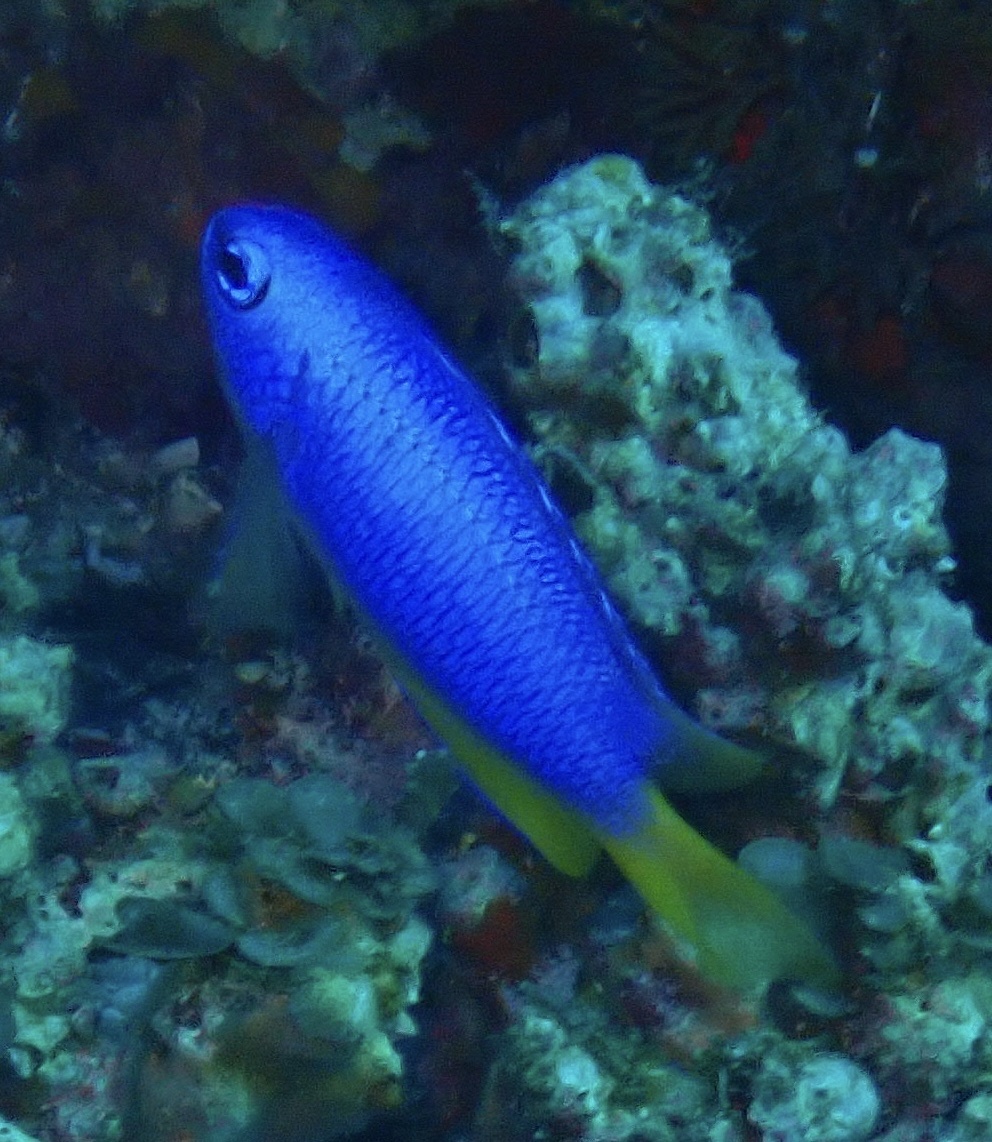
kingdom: Animalia
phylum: Chordata
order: Perciformes
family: Pomacentridae
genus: Pomacentrus
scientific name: Pomacentrus coelestis
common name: Neon damsel
